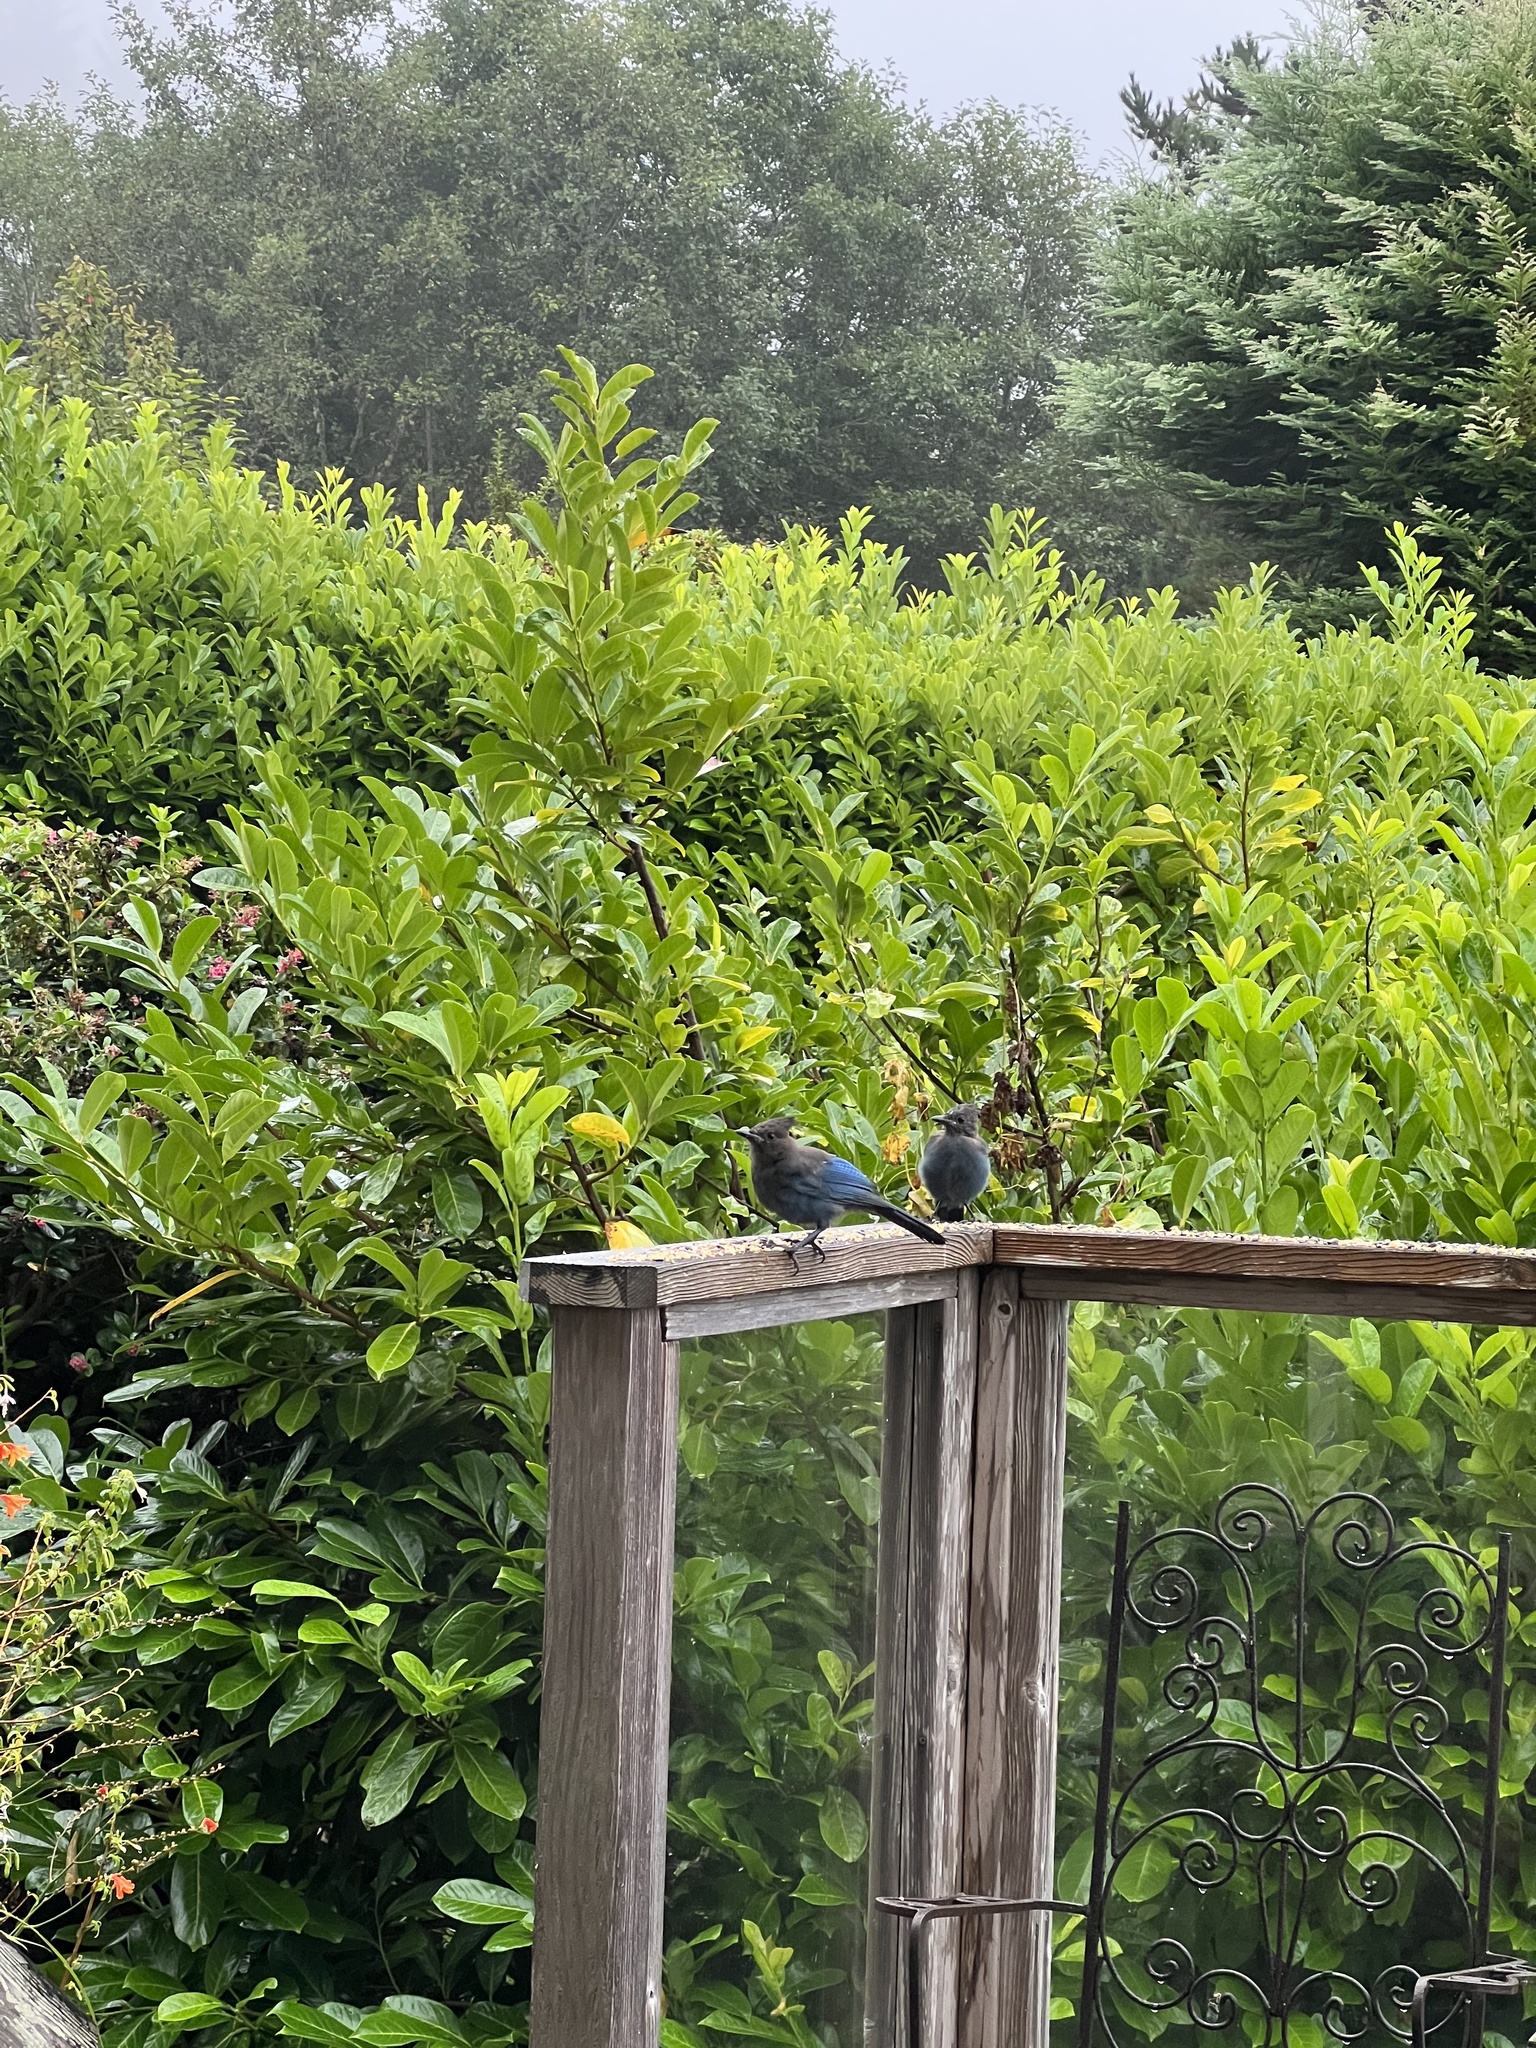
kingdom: Animalia
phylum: Chordata
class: Aves
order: Passeriformes
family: Corvidae
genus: Cyanocitta
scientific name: Cyanocitta stelleri
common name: Steller's jay
